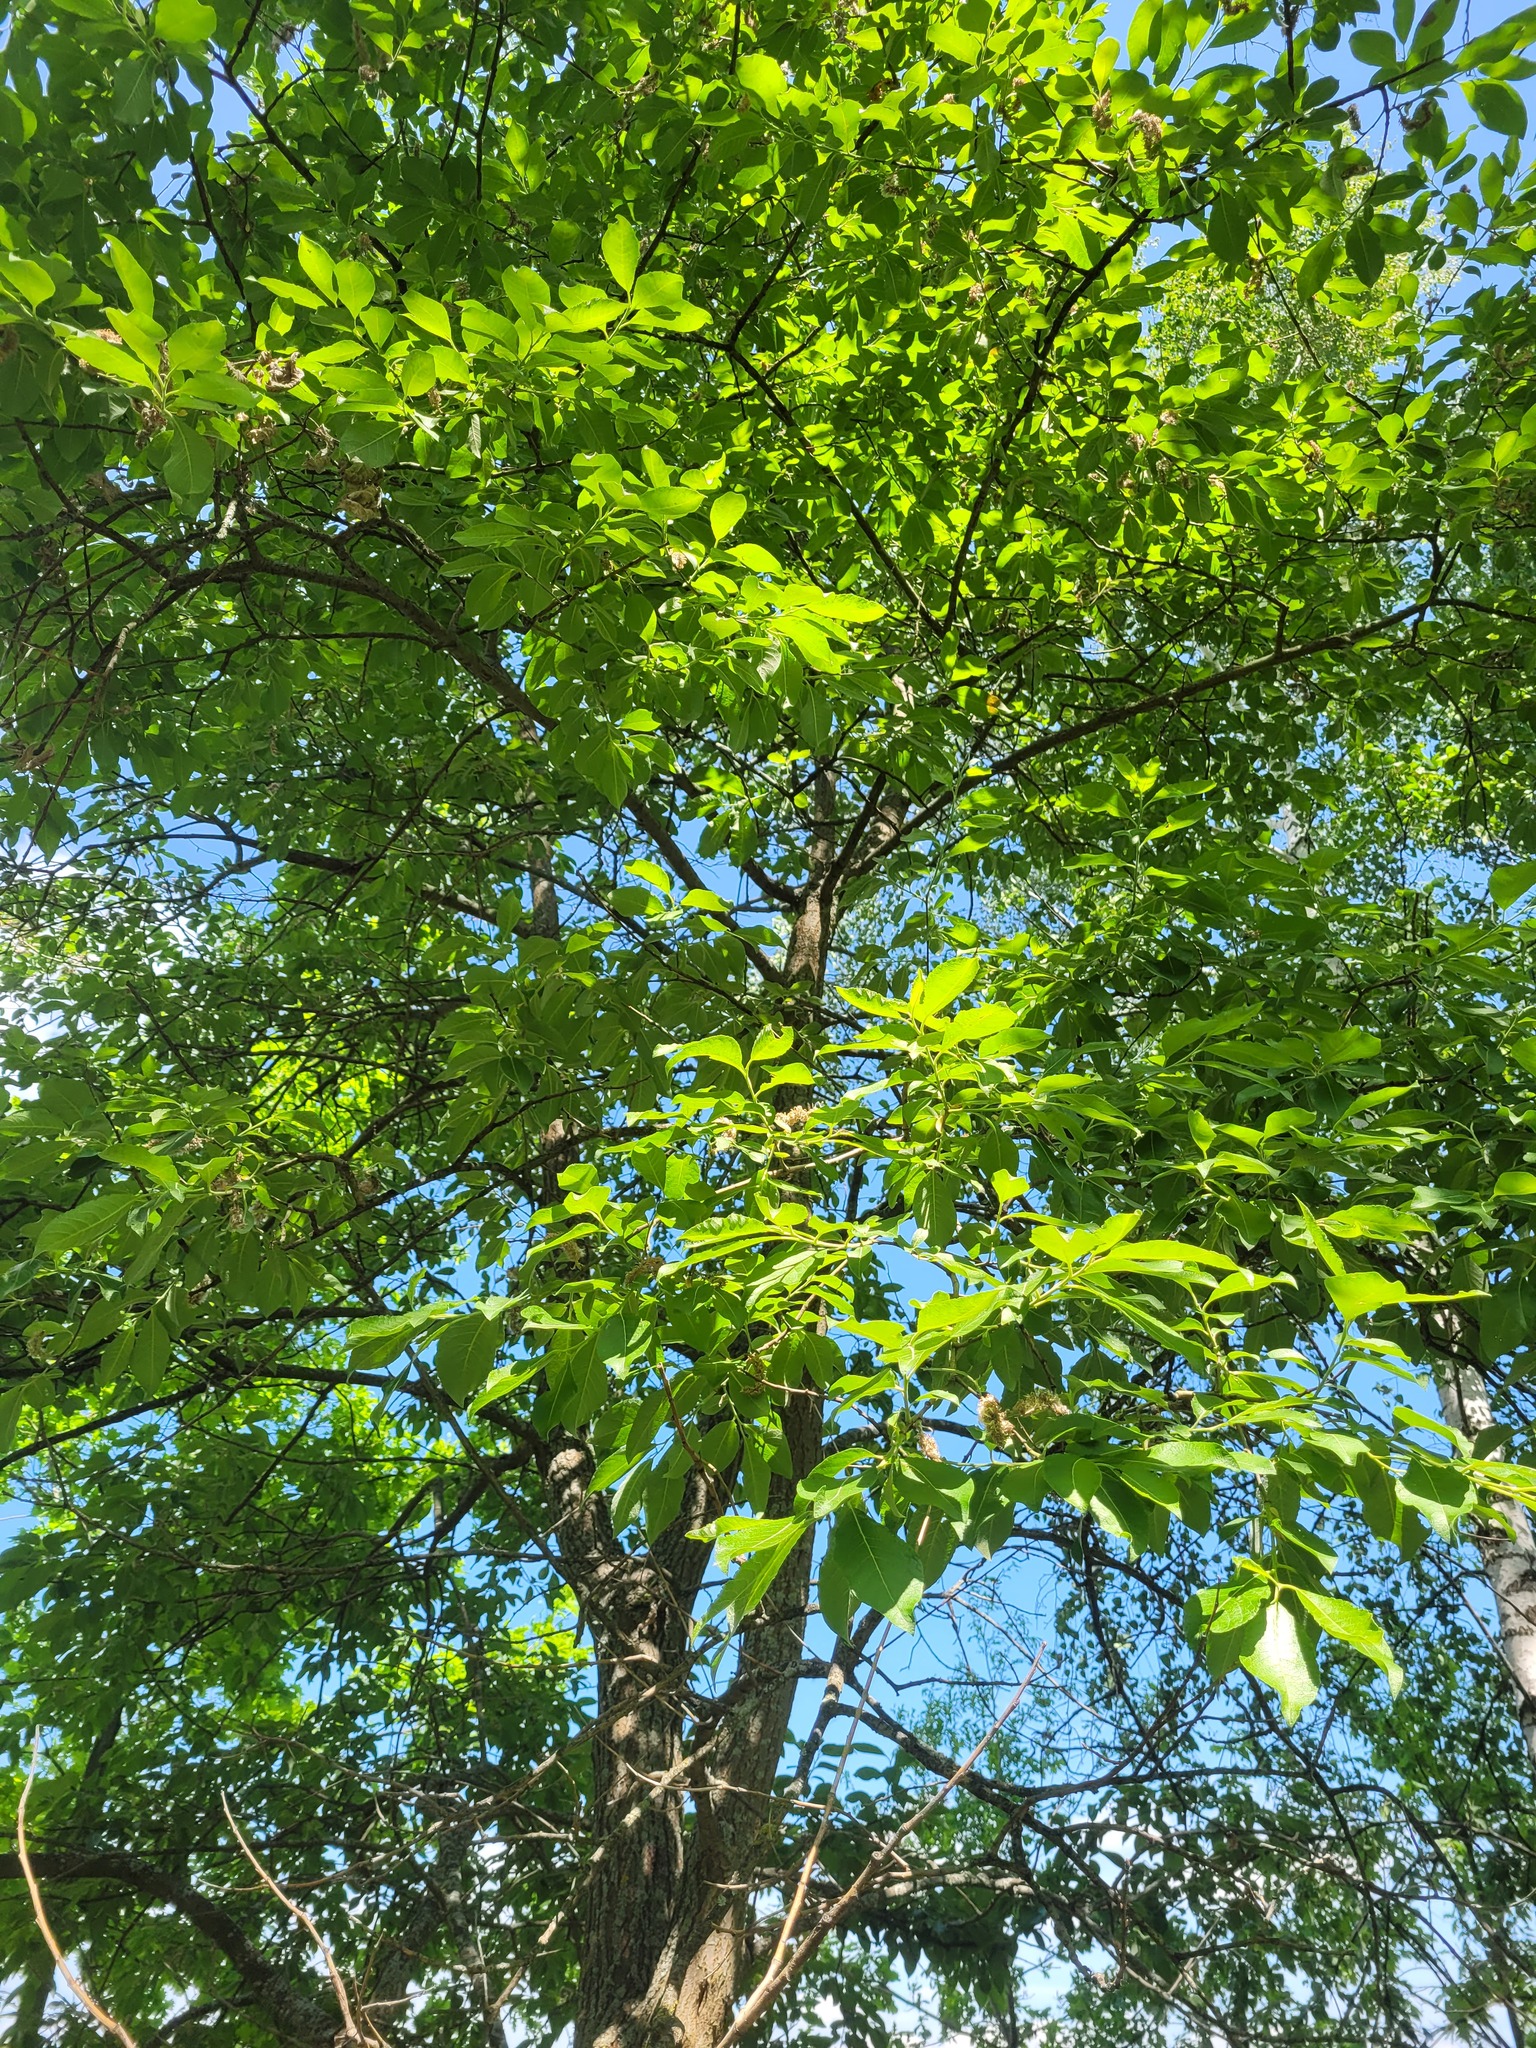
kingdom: Plantae
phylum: Tracheophyta
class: Magnoliopsida
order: Malpighiales
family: Salicaceae
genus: Salix
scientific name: Salix caprea
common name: Goat willow
